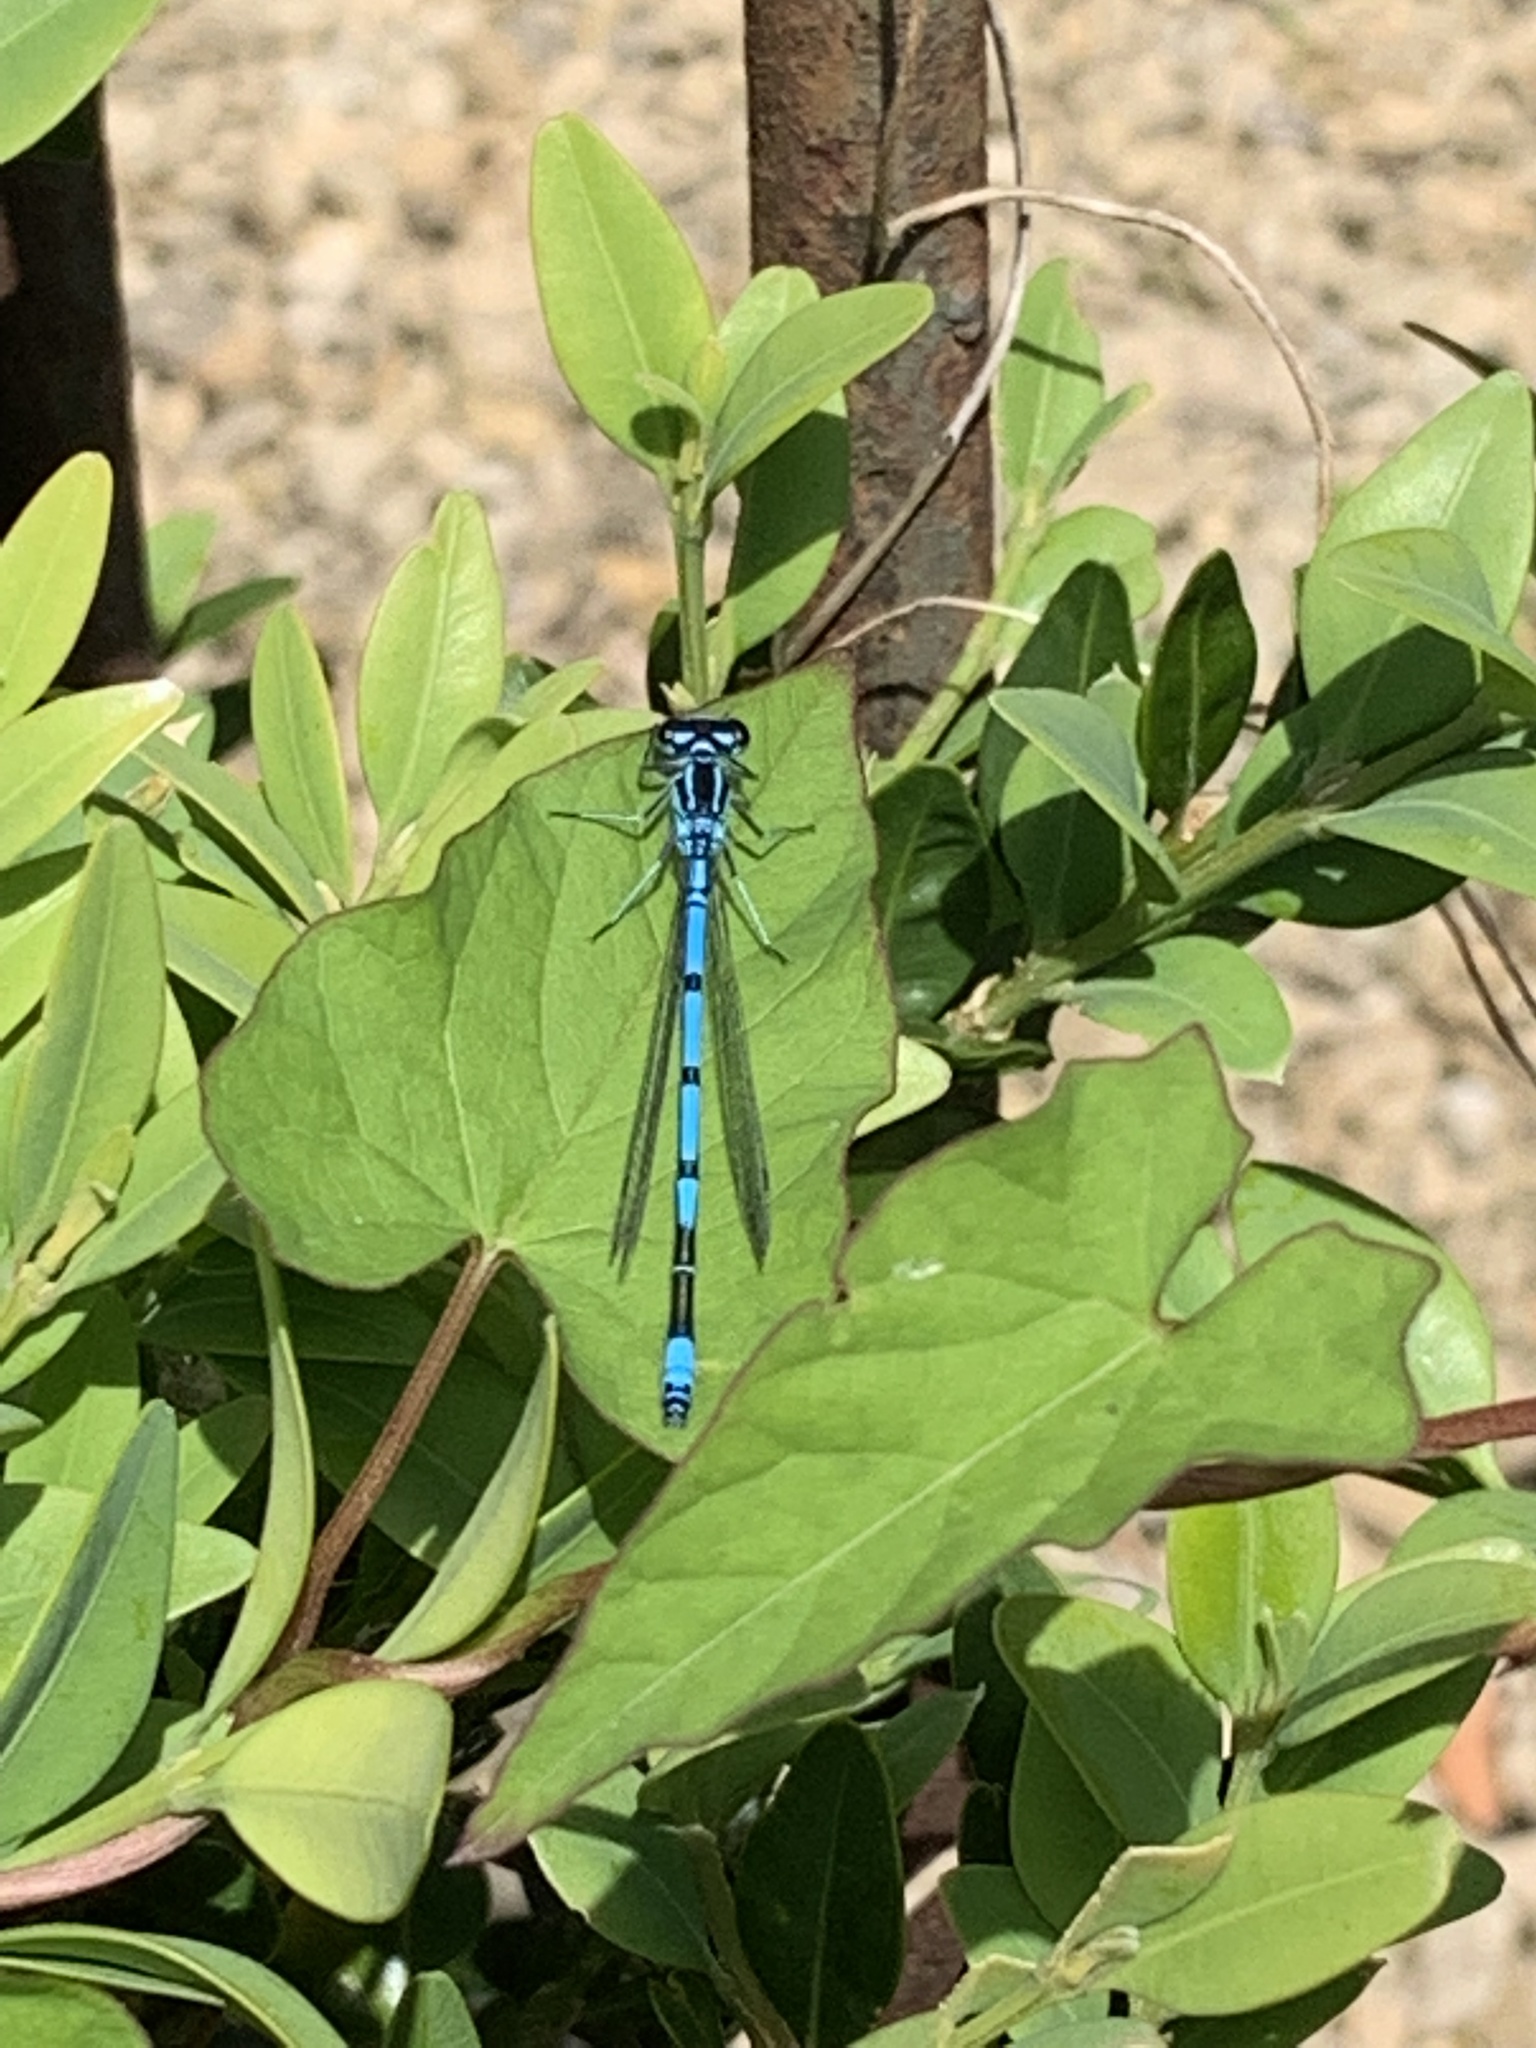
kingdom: Animalia
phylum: Arthropoda
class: Insecta
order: Odonata
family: Coenagrionidae
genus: Coenagrion
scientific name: Coenagrion puella
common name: Azure damselfly
